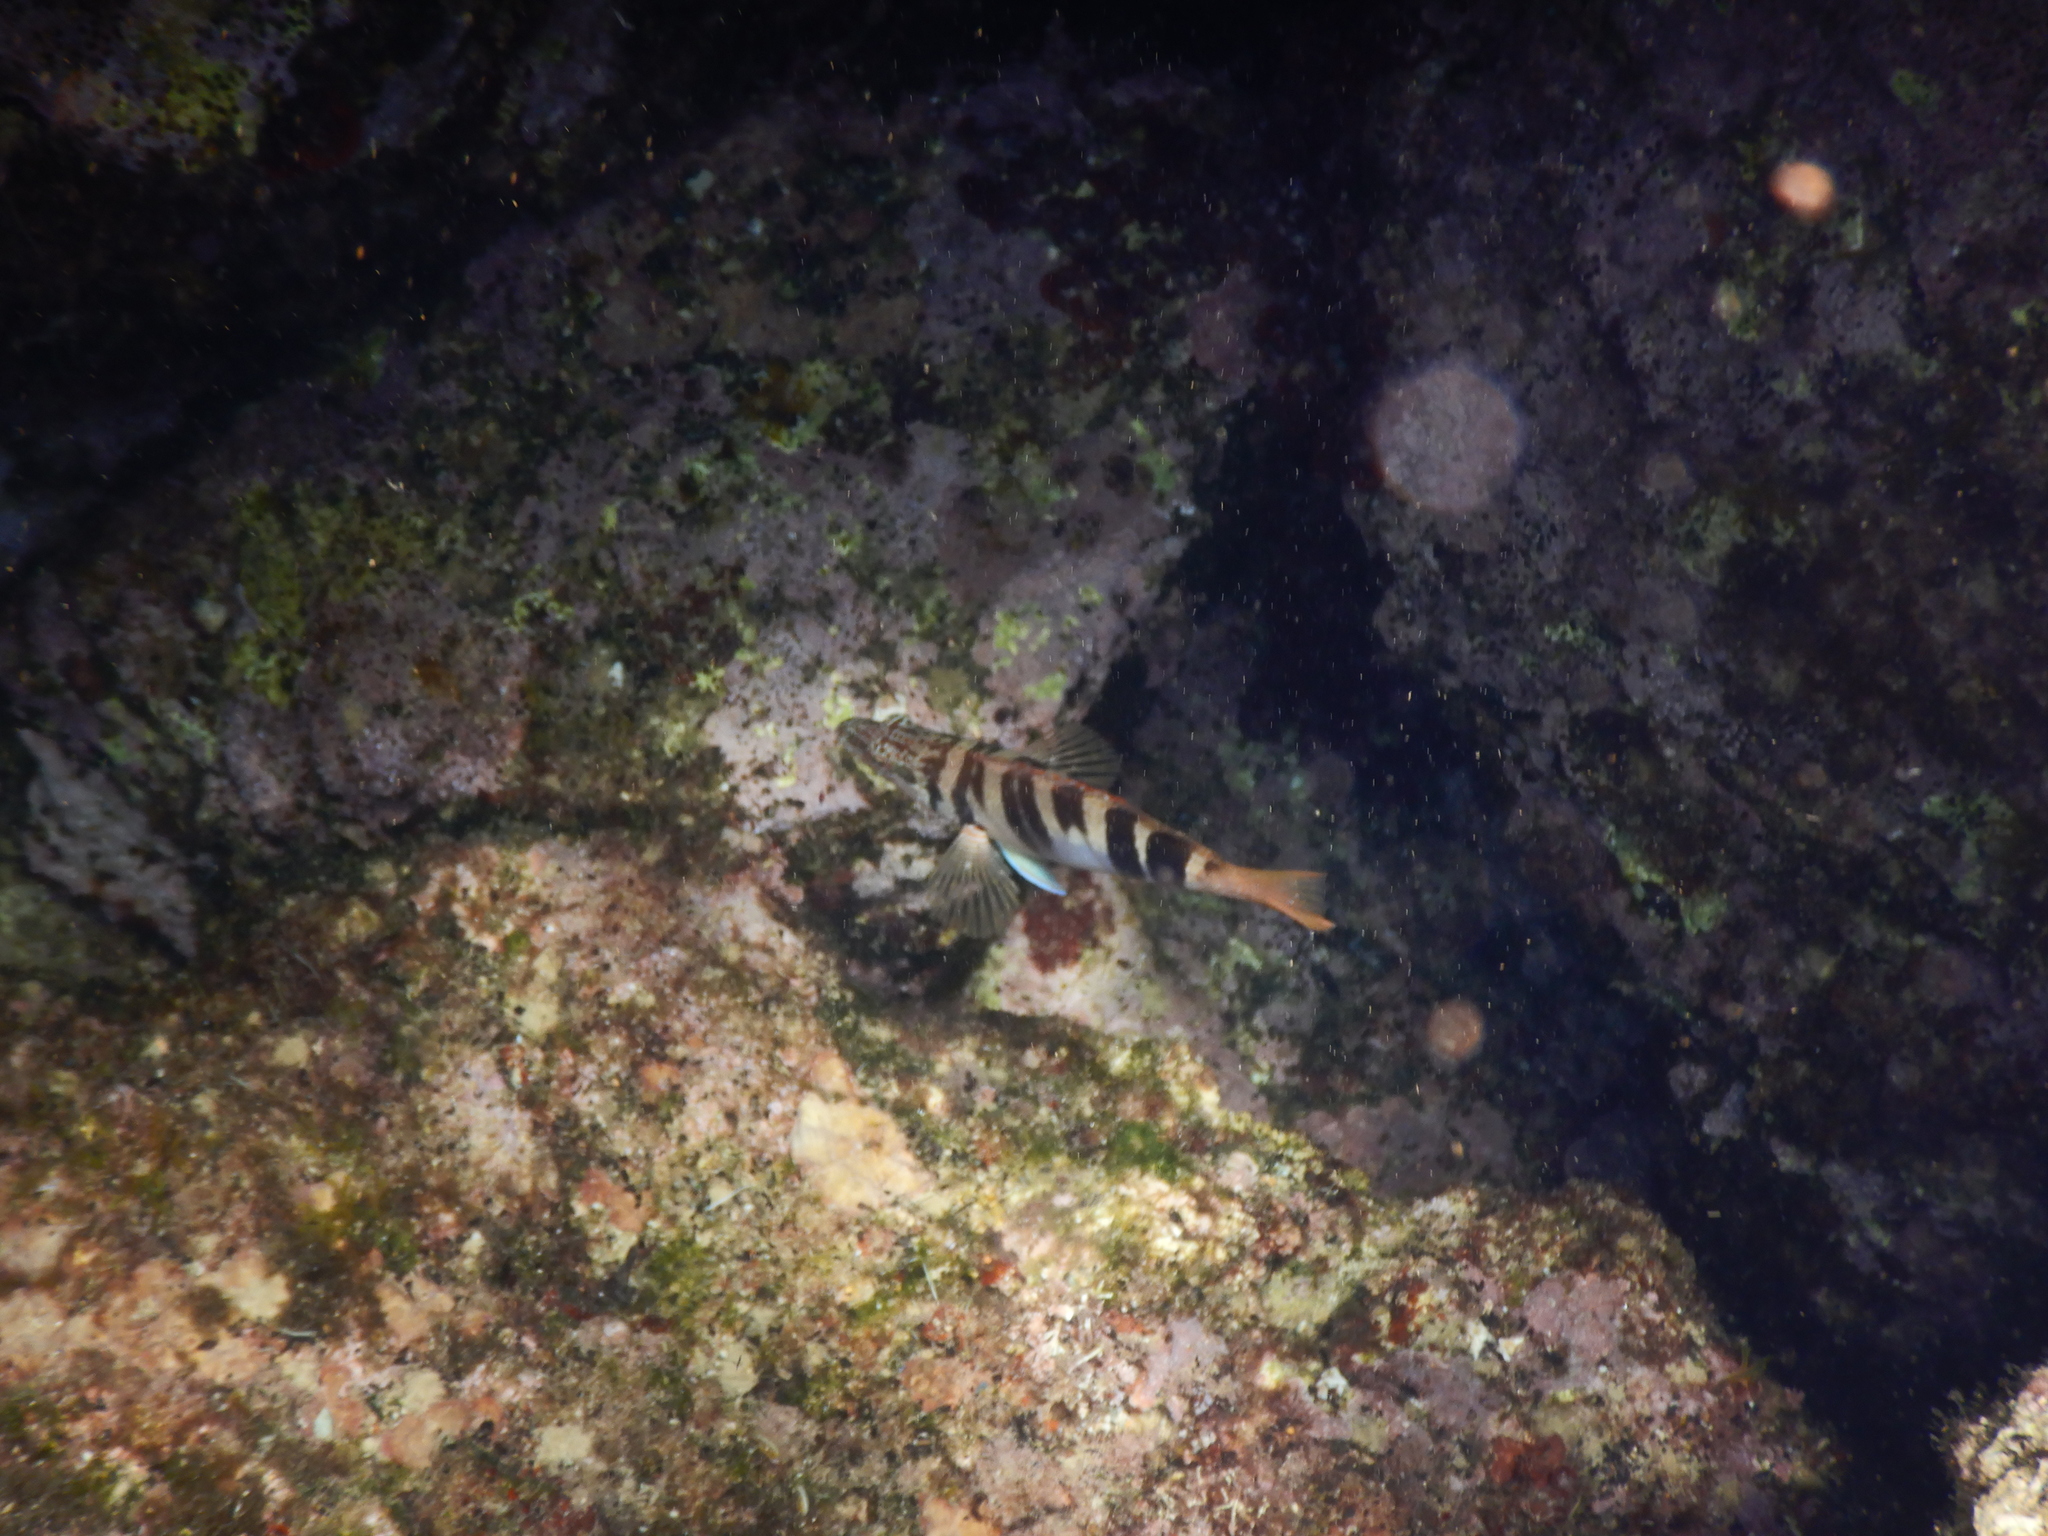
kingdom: Animalia
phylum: Chordata
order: Perciformes
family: Serranidae
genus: Serranus
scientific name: Serranus scriba
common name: Painted comber
